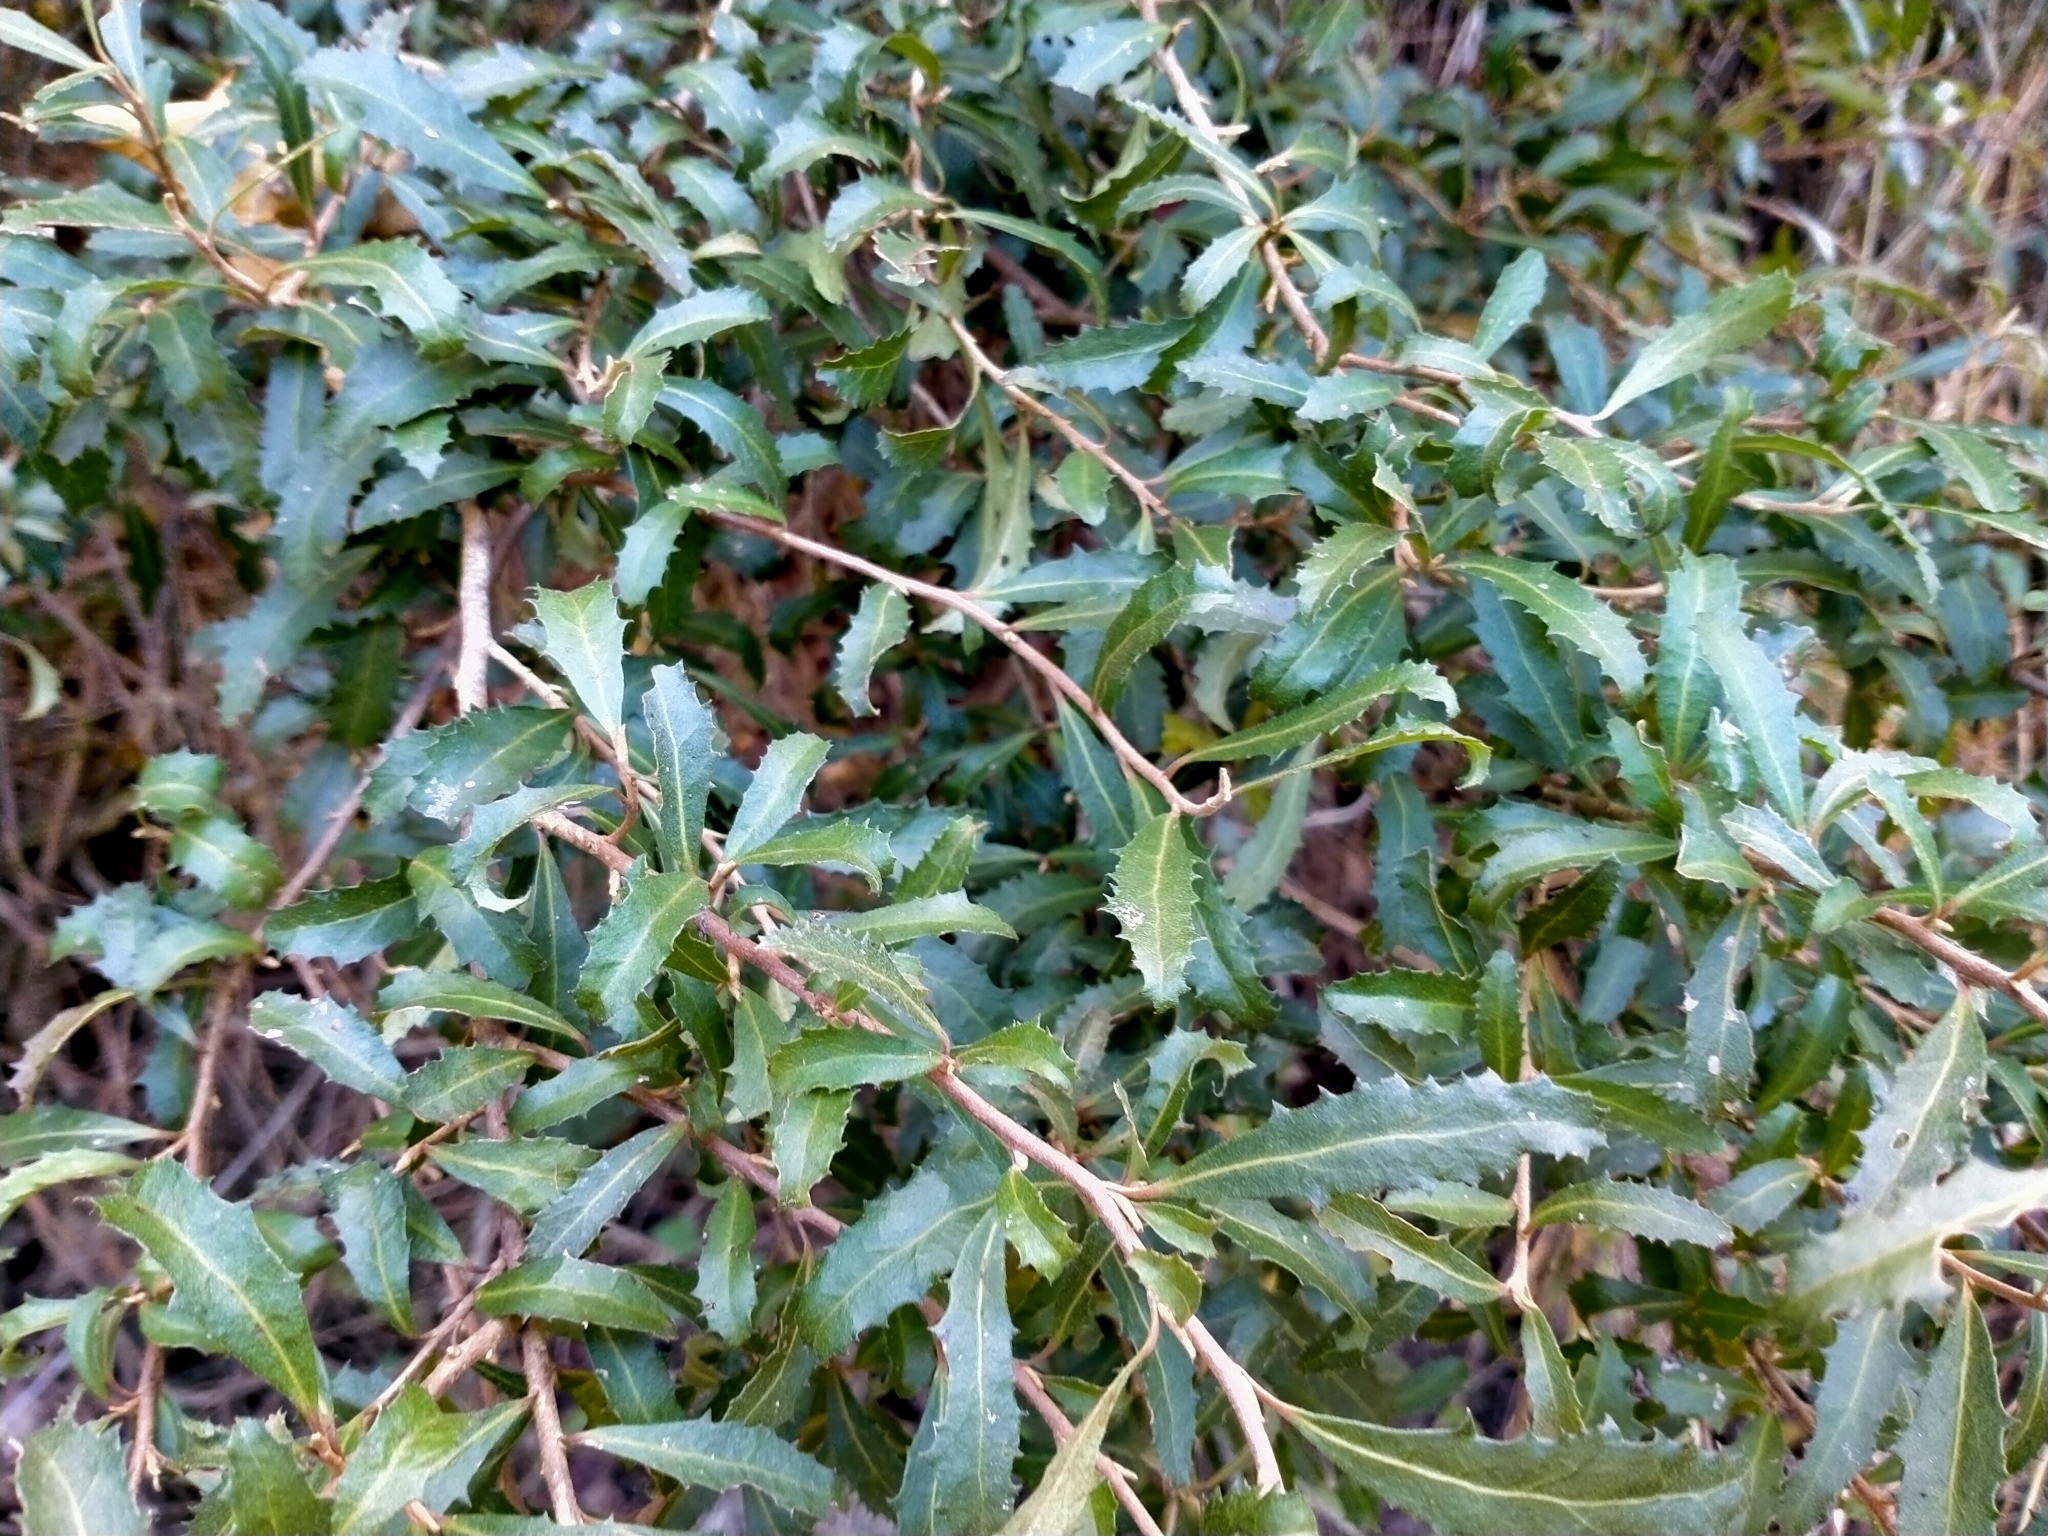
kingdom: Plantae
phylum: Tracheophyta
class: Magnoliopsida
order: Malvales
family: Malvaceae
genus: Hoheria
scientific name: Hoheria angustifolia
